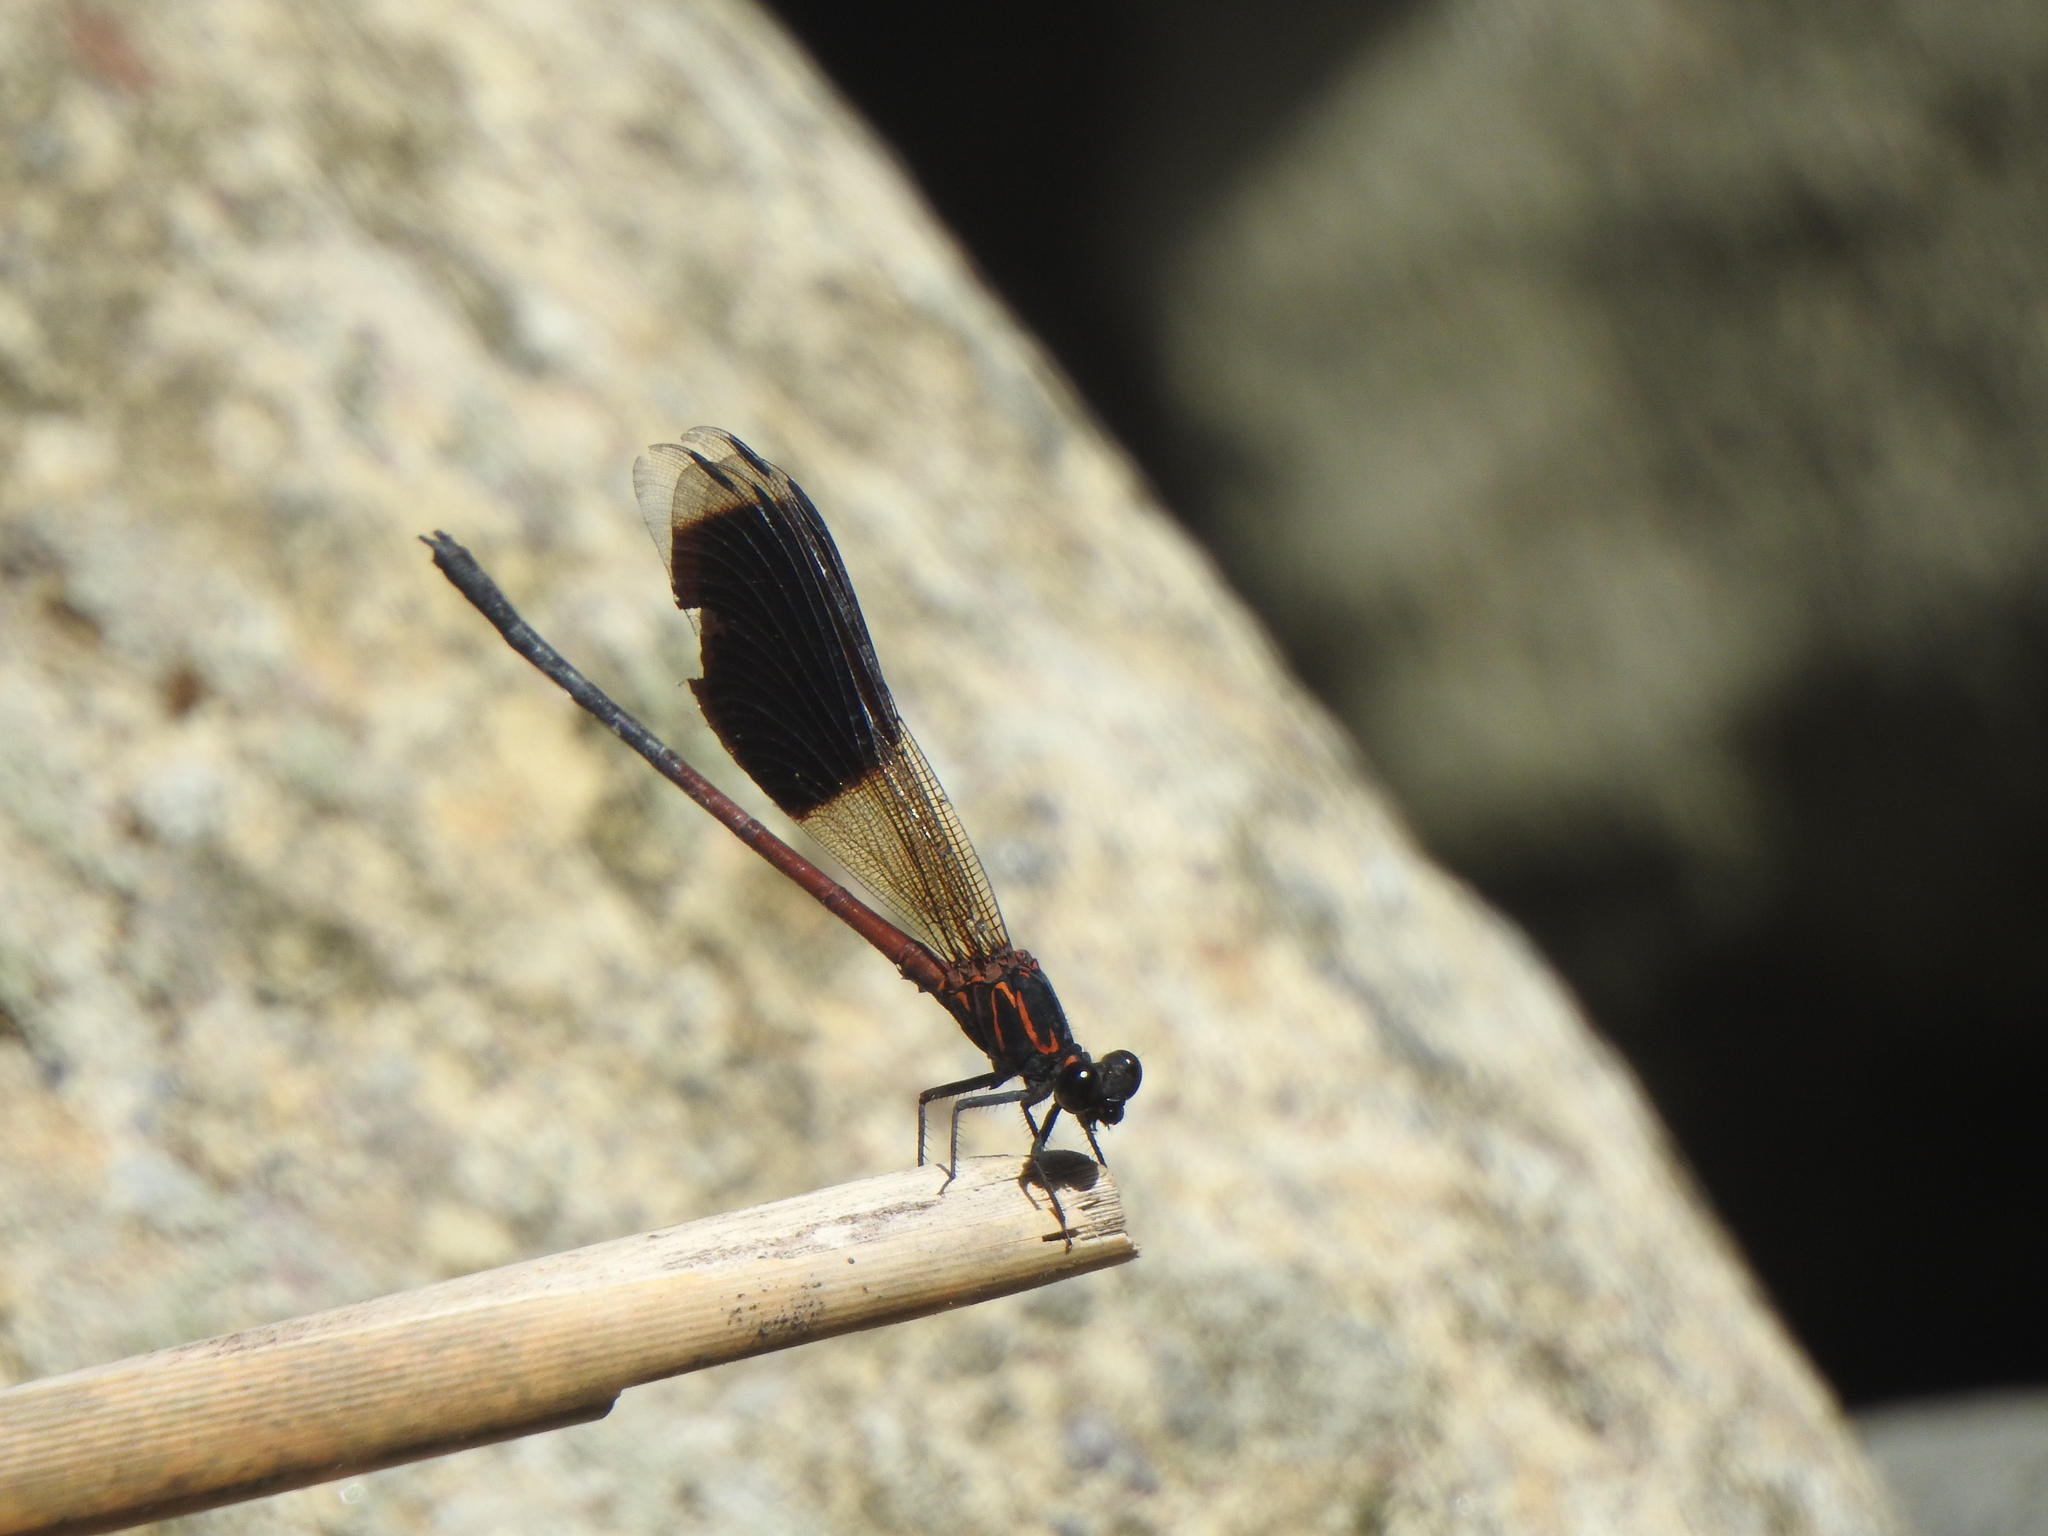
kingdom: Animalia
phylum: Arthropoda
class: Insecta
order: Odonata
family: Euphaeidae
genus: Euphaea
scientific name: Euphaea formosa
